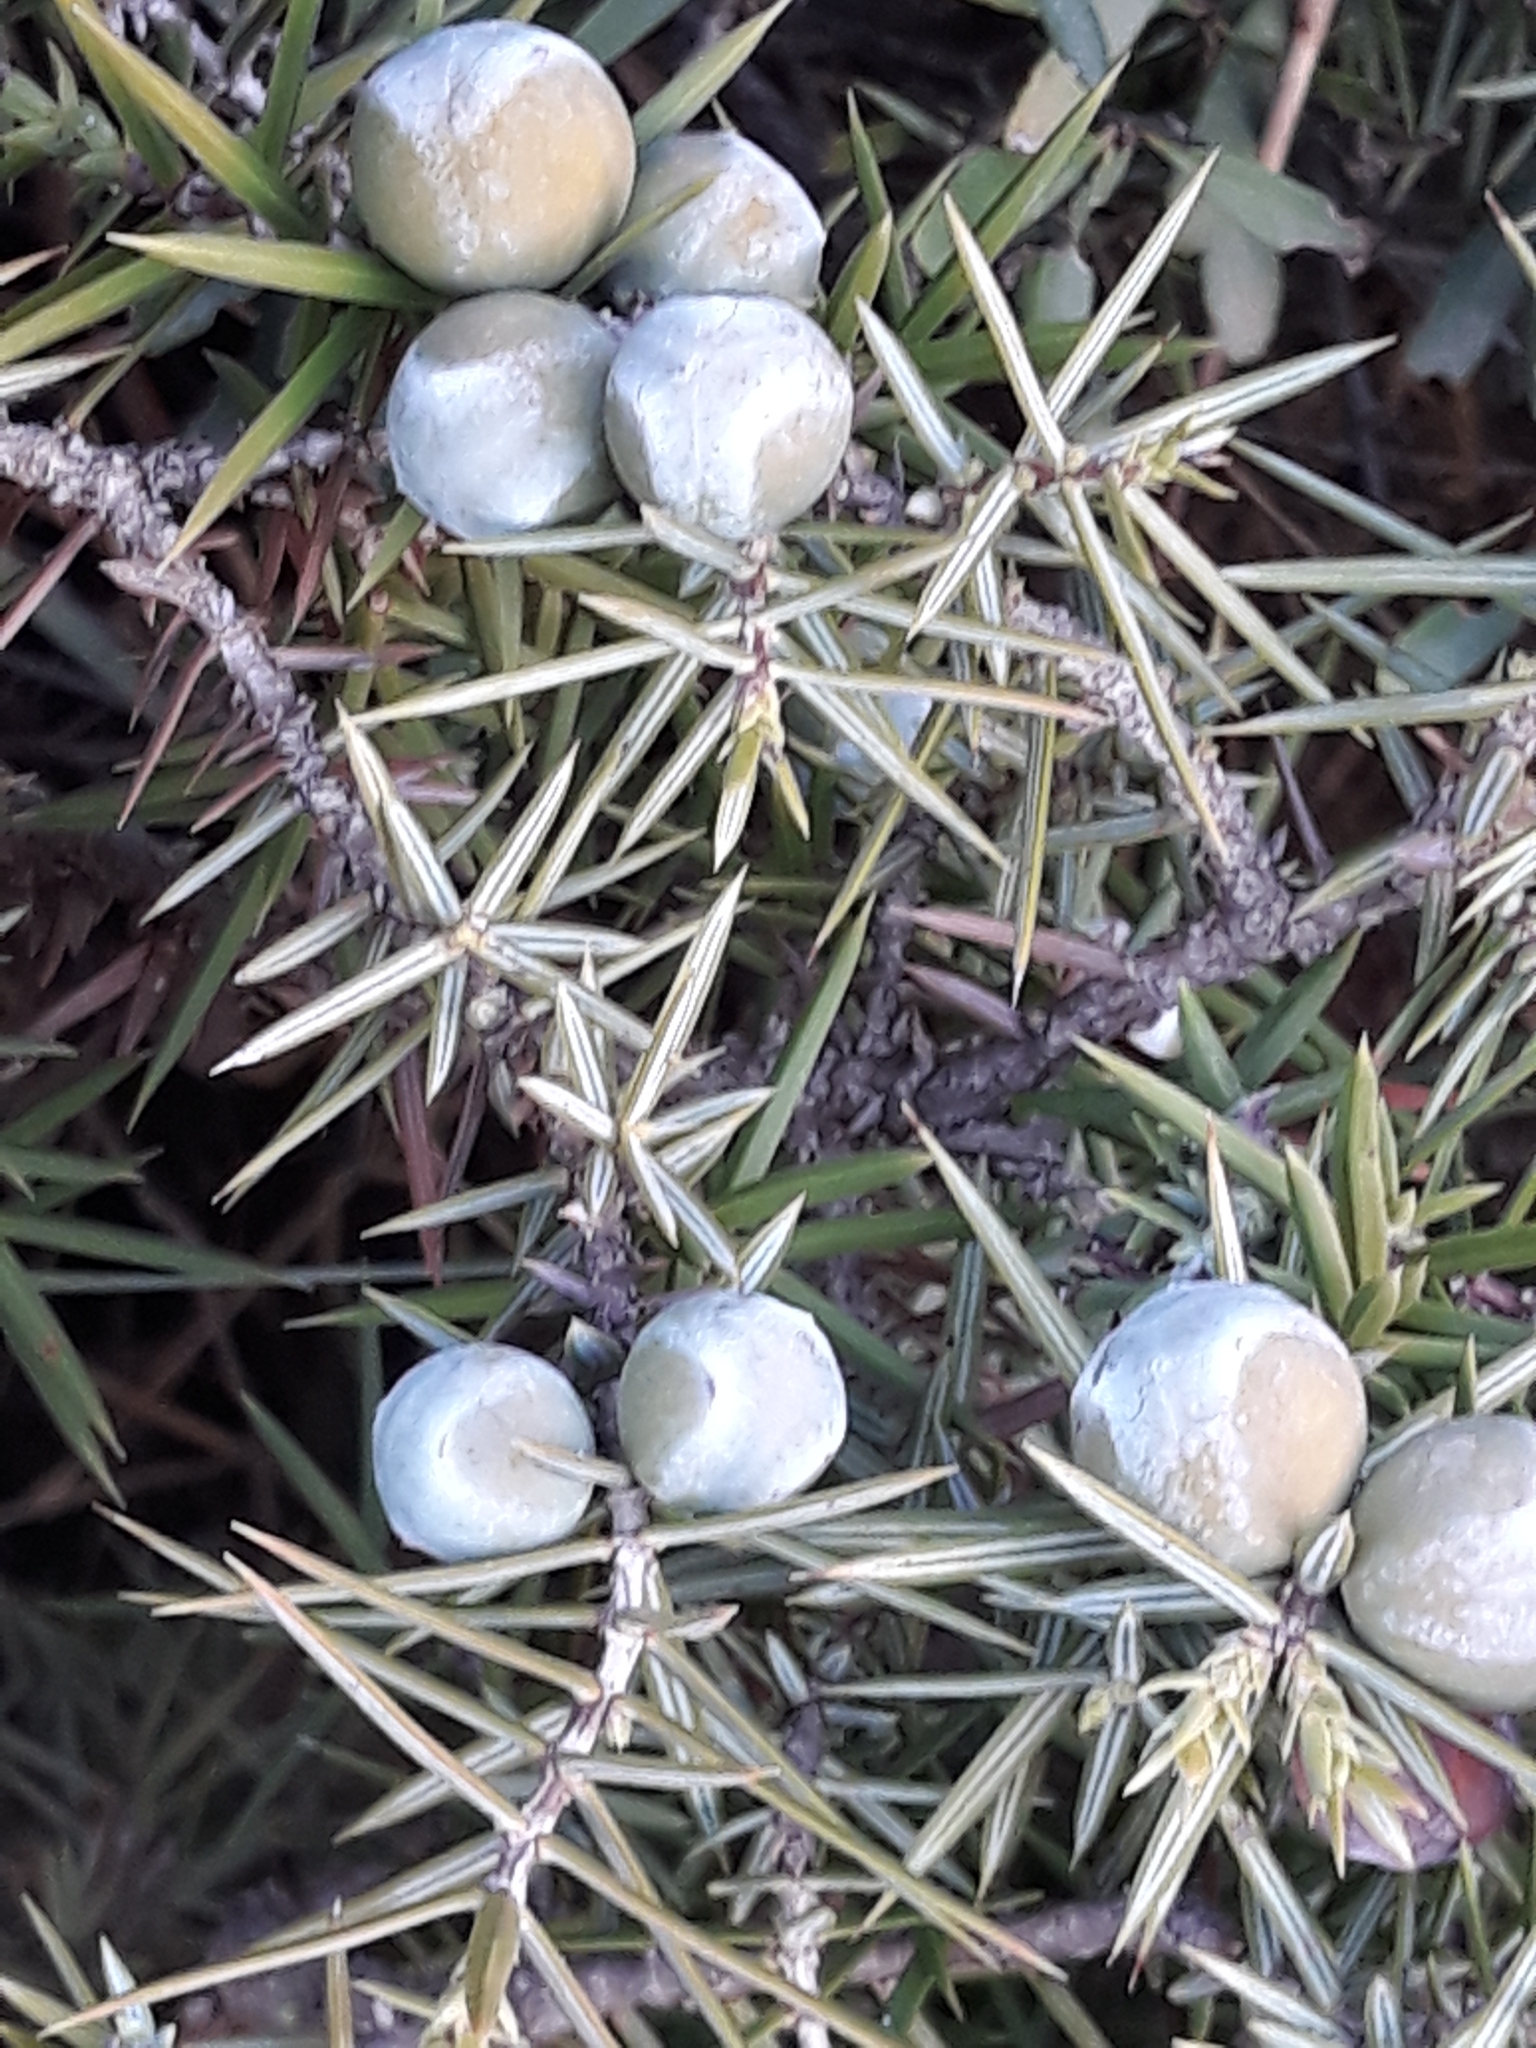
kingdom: Plantae
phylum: Tracheophyta
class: Pinopsida
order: Pinales
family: Cupressaceae
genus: Juniperus
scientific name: Juniperus oxycedrus
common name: Prickly juniper
